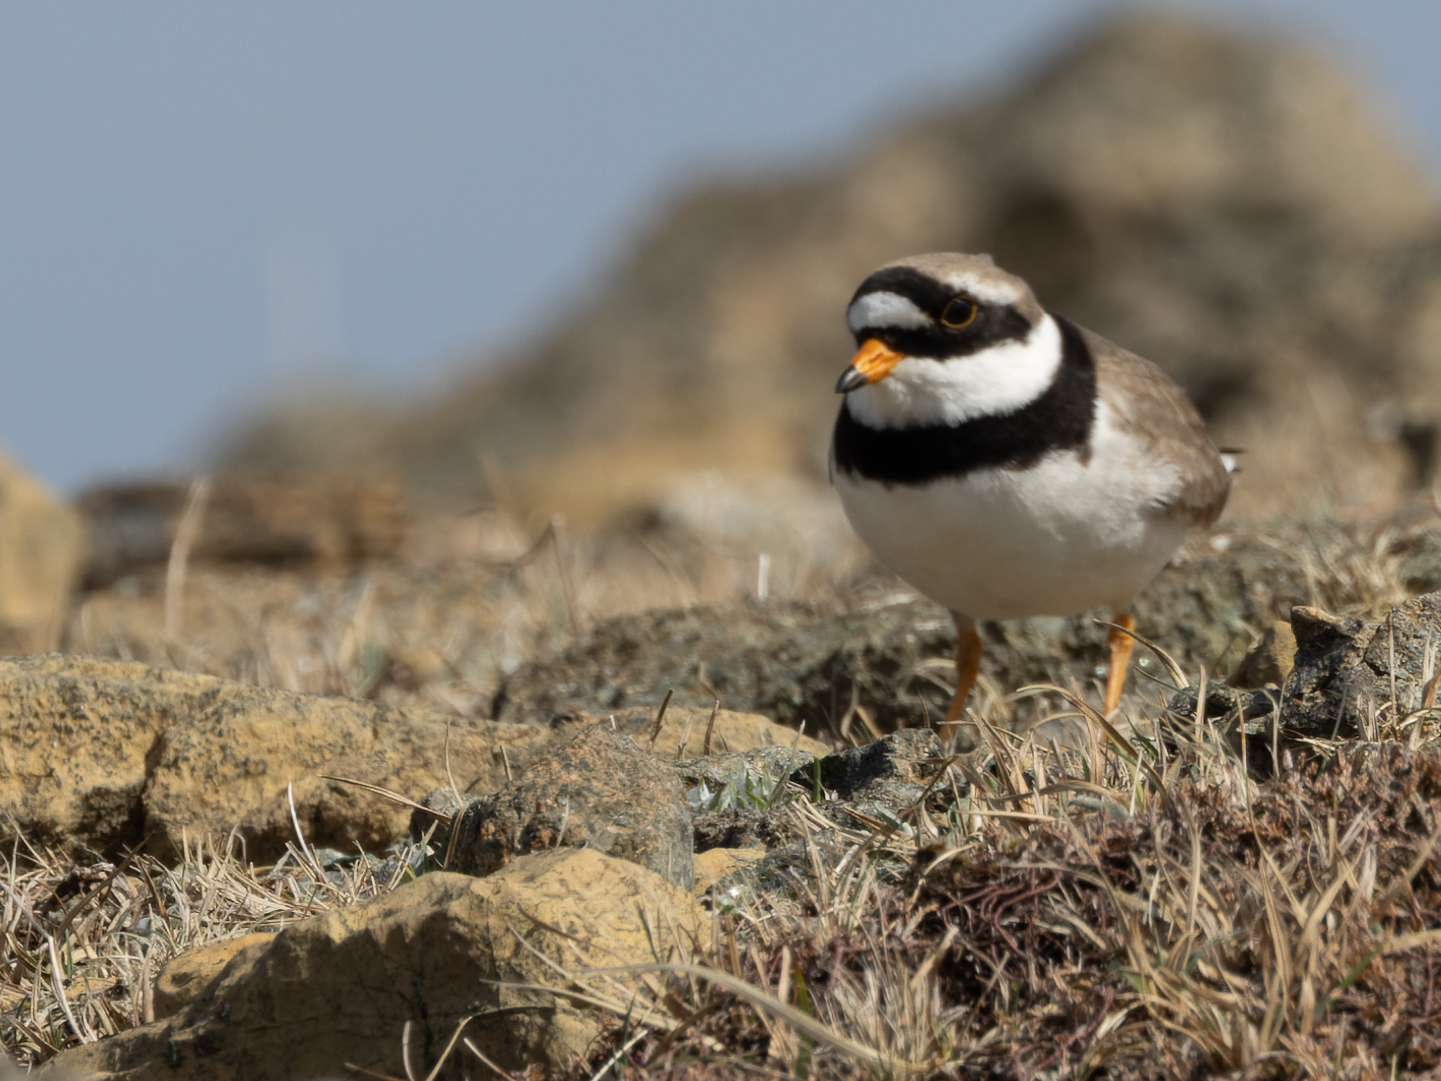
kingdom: Animalia
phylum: Chordata
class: Aves
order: Charadriiformes
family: Charadriidae
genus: Charadrius
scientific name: Charadrius hiaticula
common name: Common ringed plover
